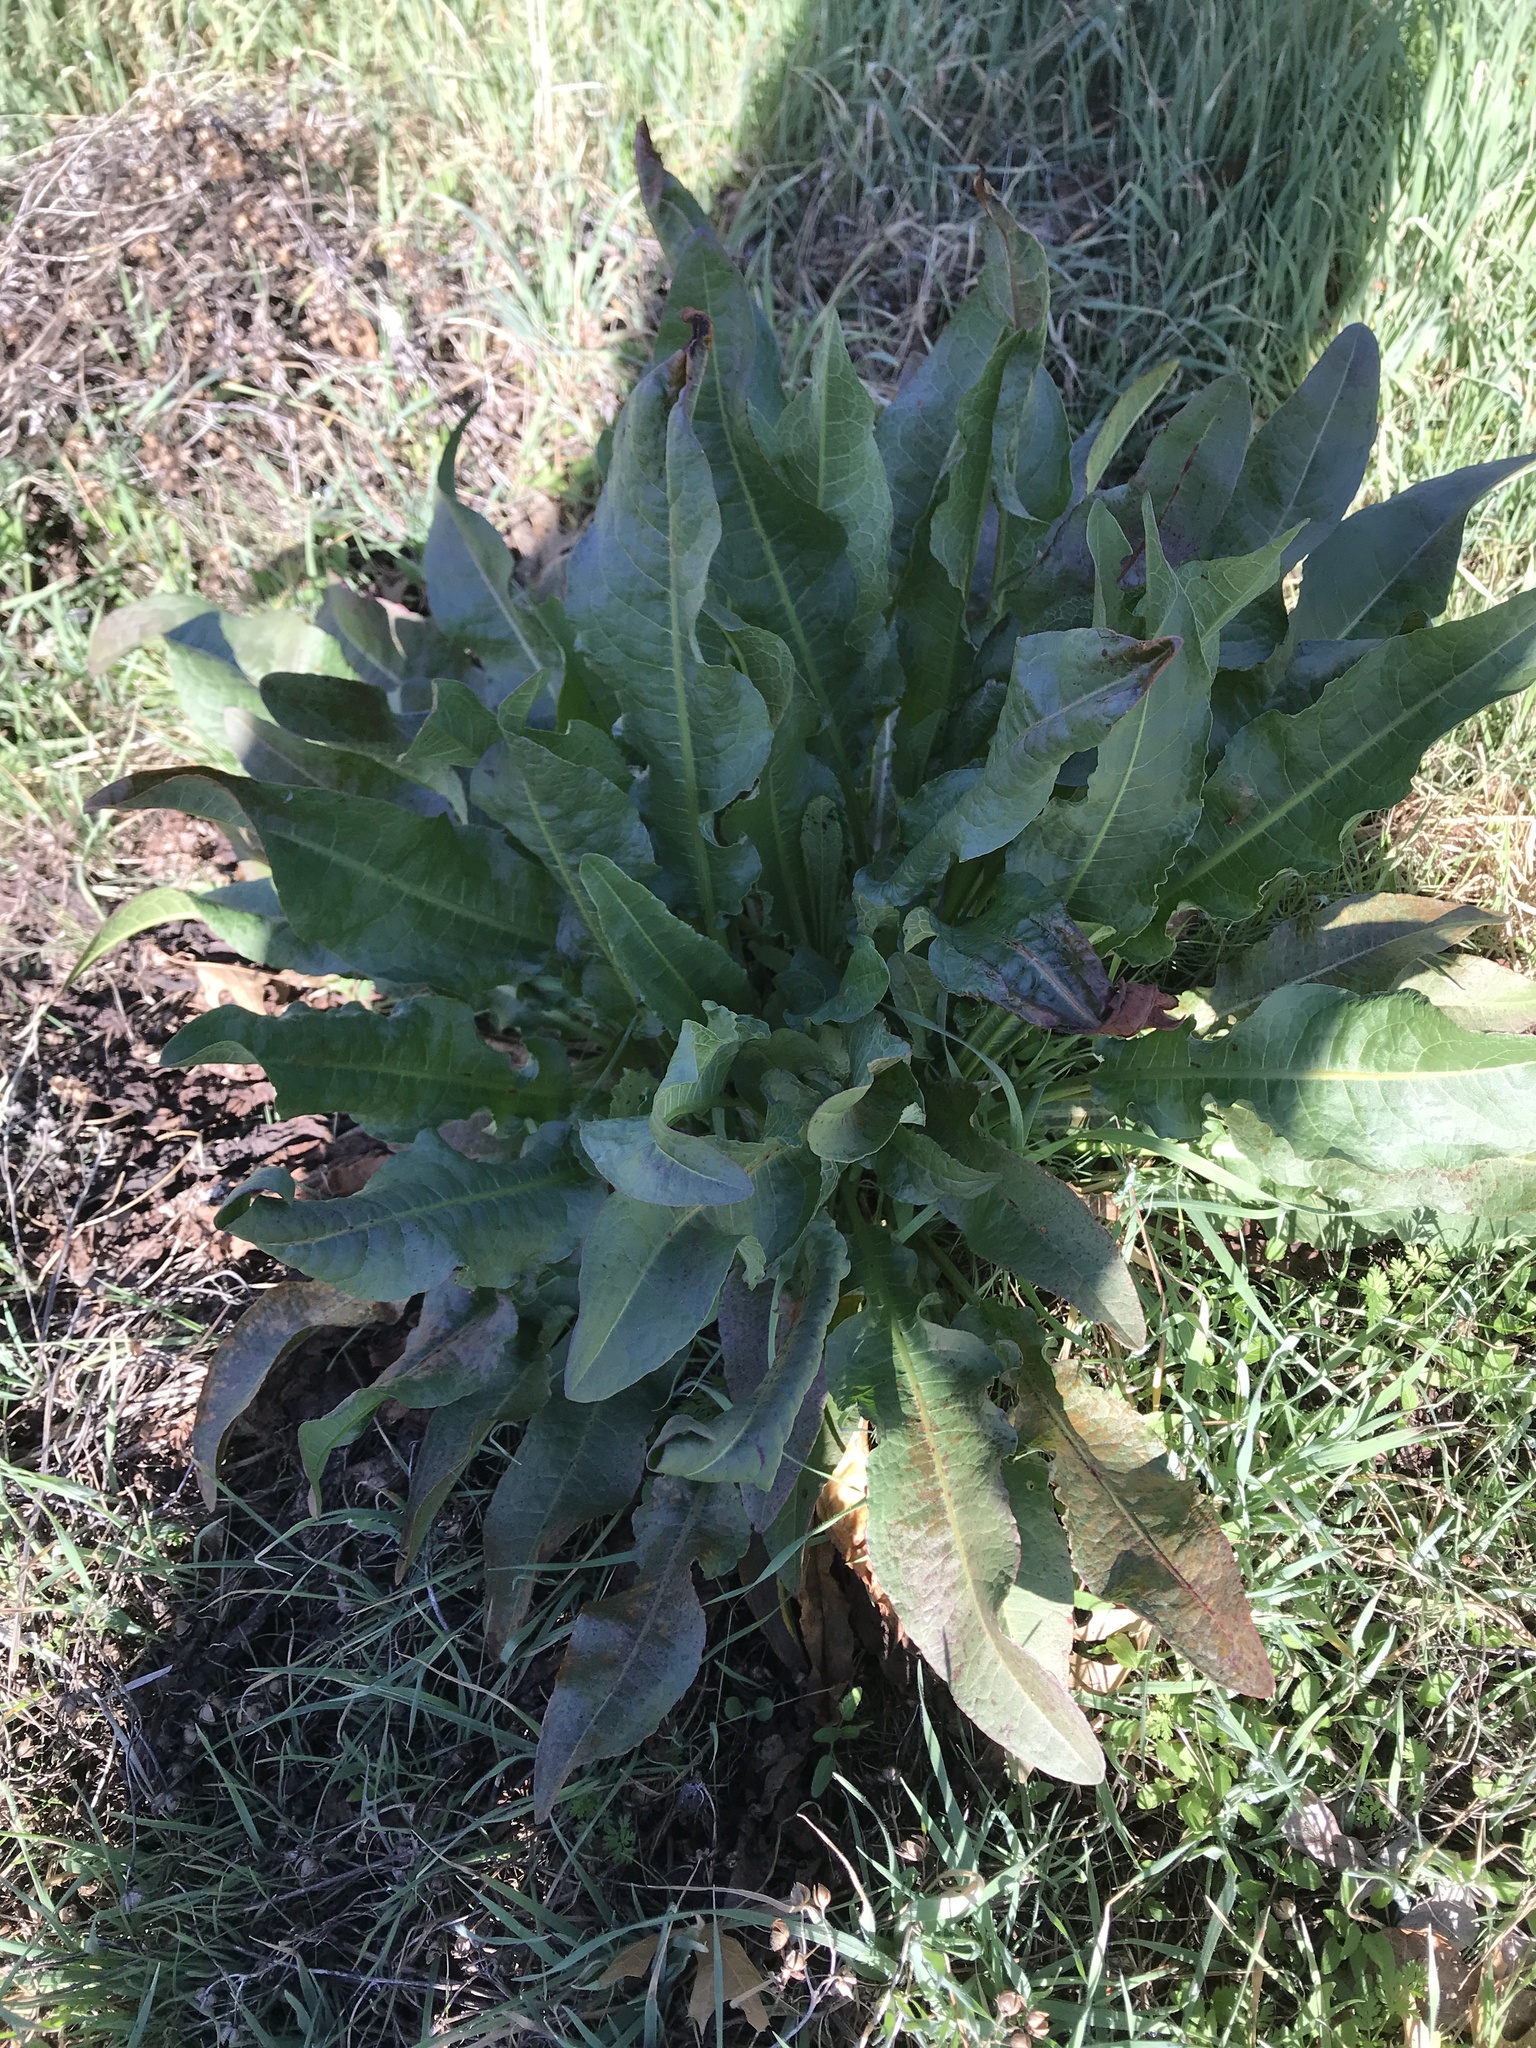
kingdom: Plantae
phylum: Tracheophyta
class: Magnoliopsida
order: Caryophyllales
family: Polygonaceae
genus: Rumex
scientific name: Rumex crispus
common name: Curled dock
